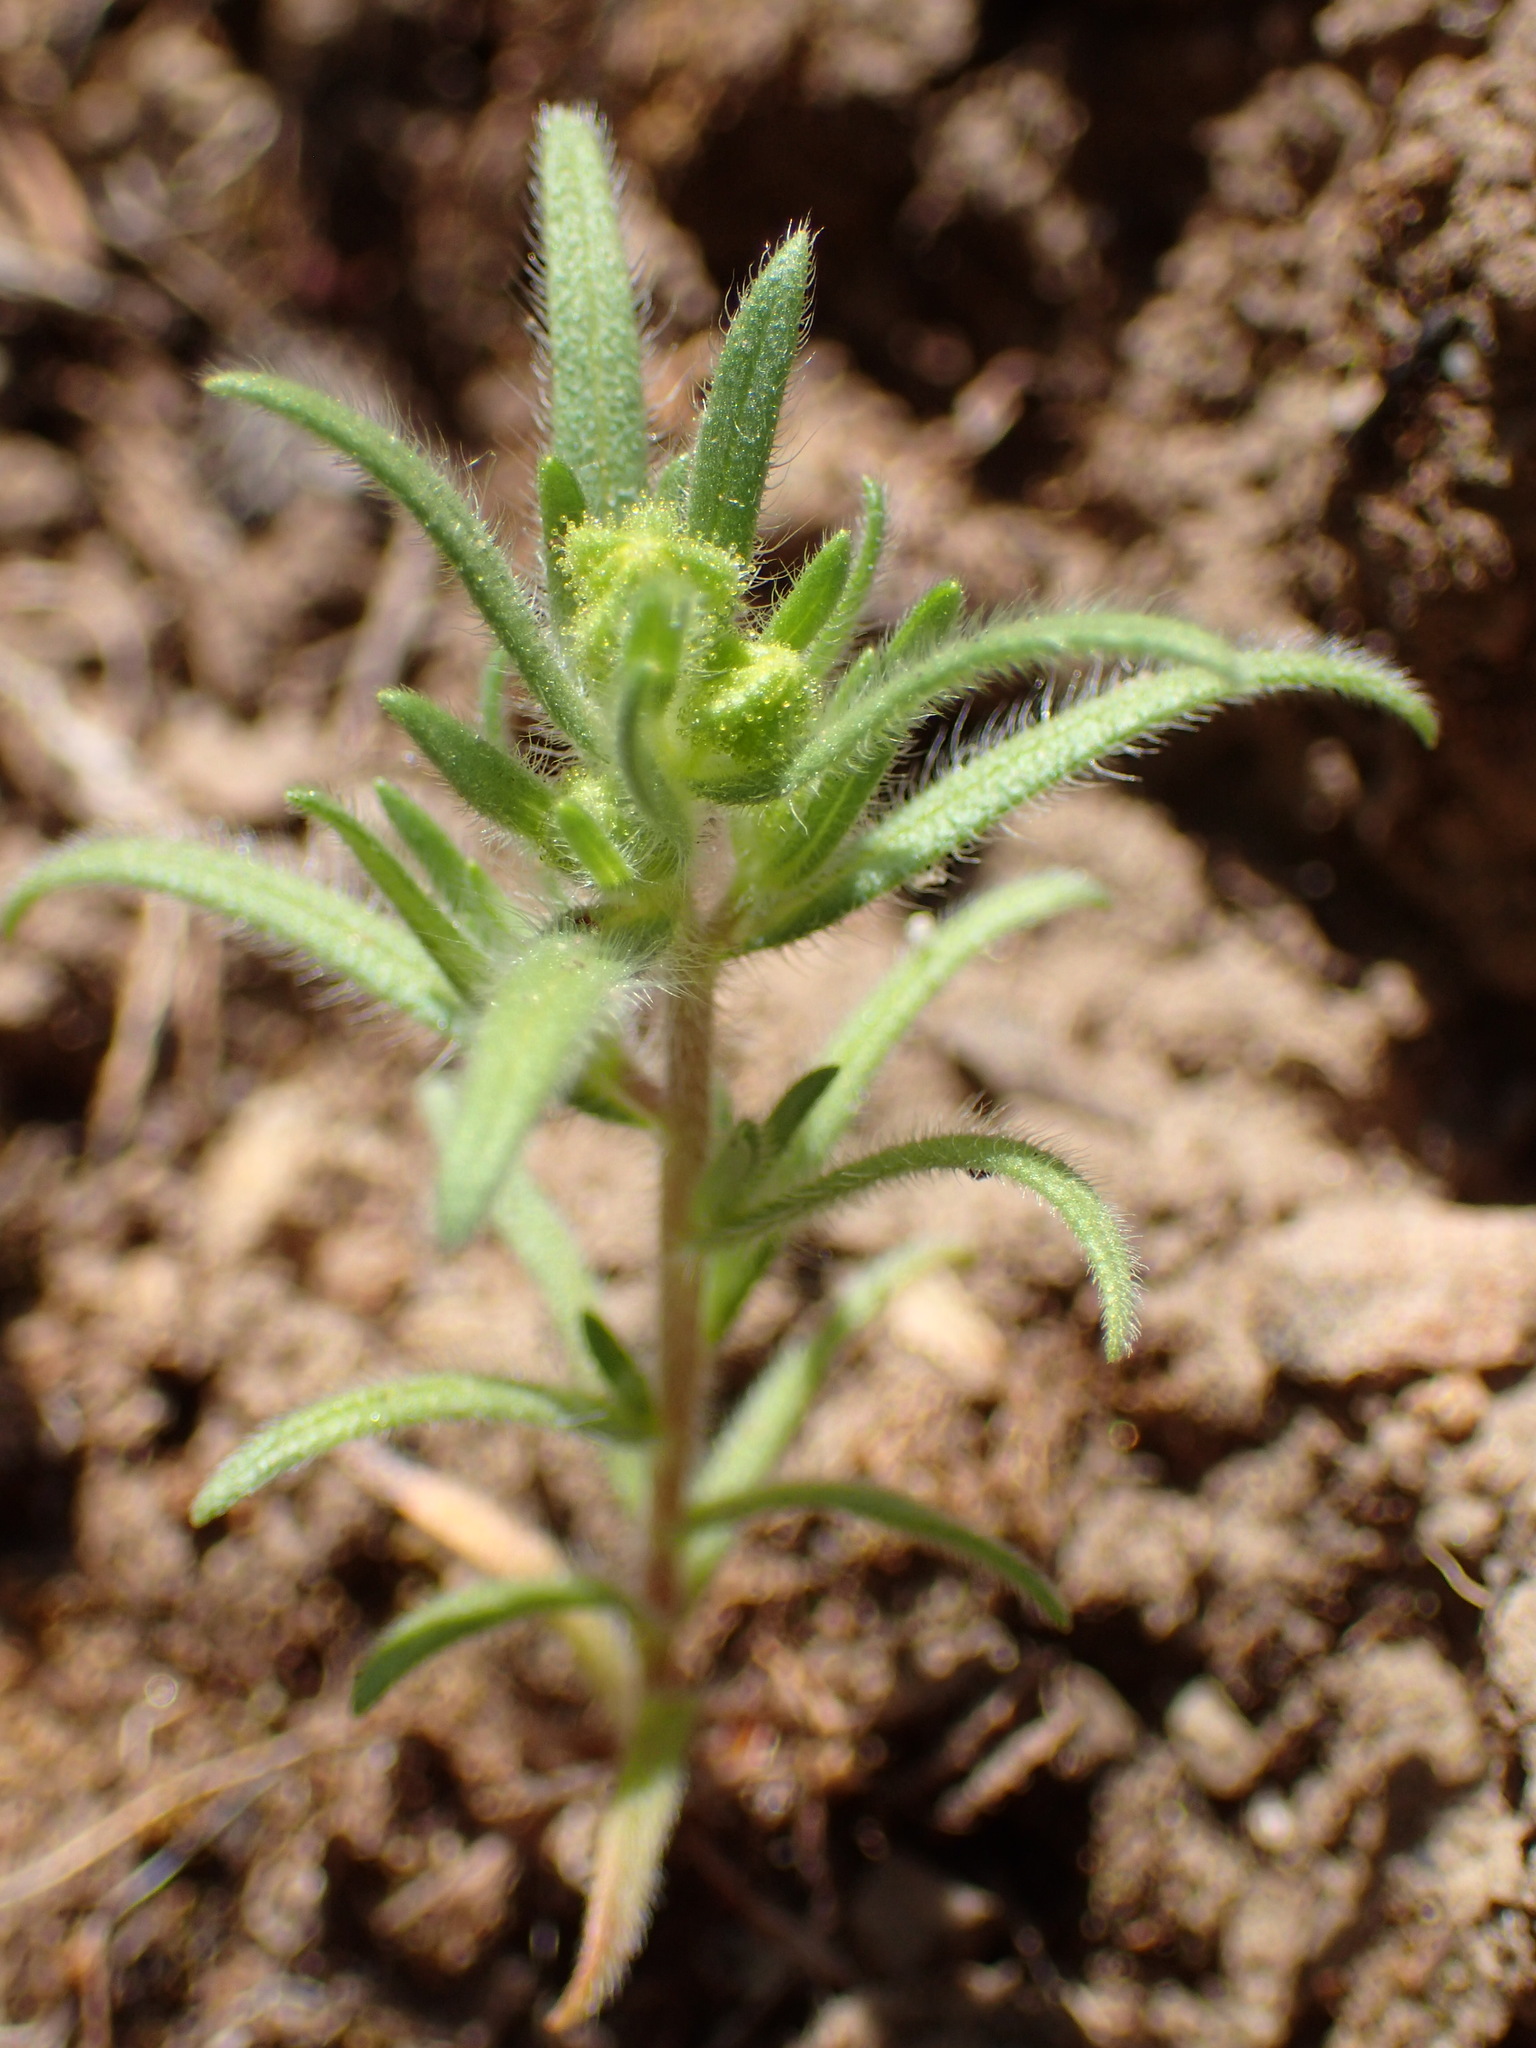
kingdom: Plantae
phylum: Tracheophyta
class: Magnoliopsida
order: Asterales
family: Asteraceae
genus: Madia
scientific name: Madia exigua
